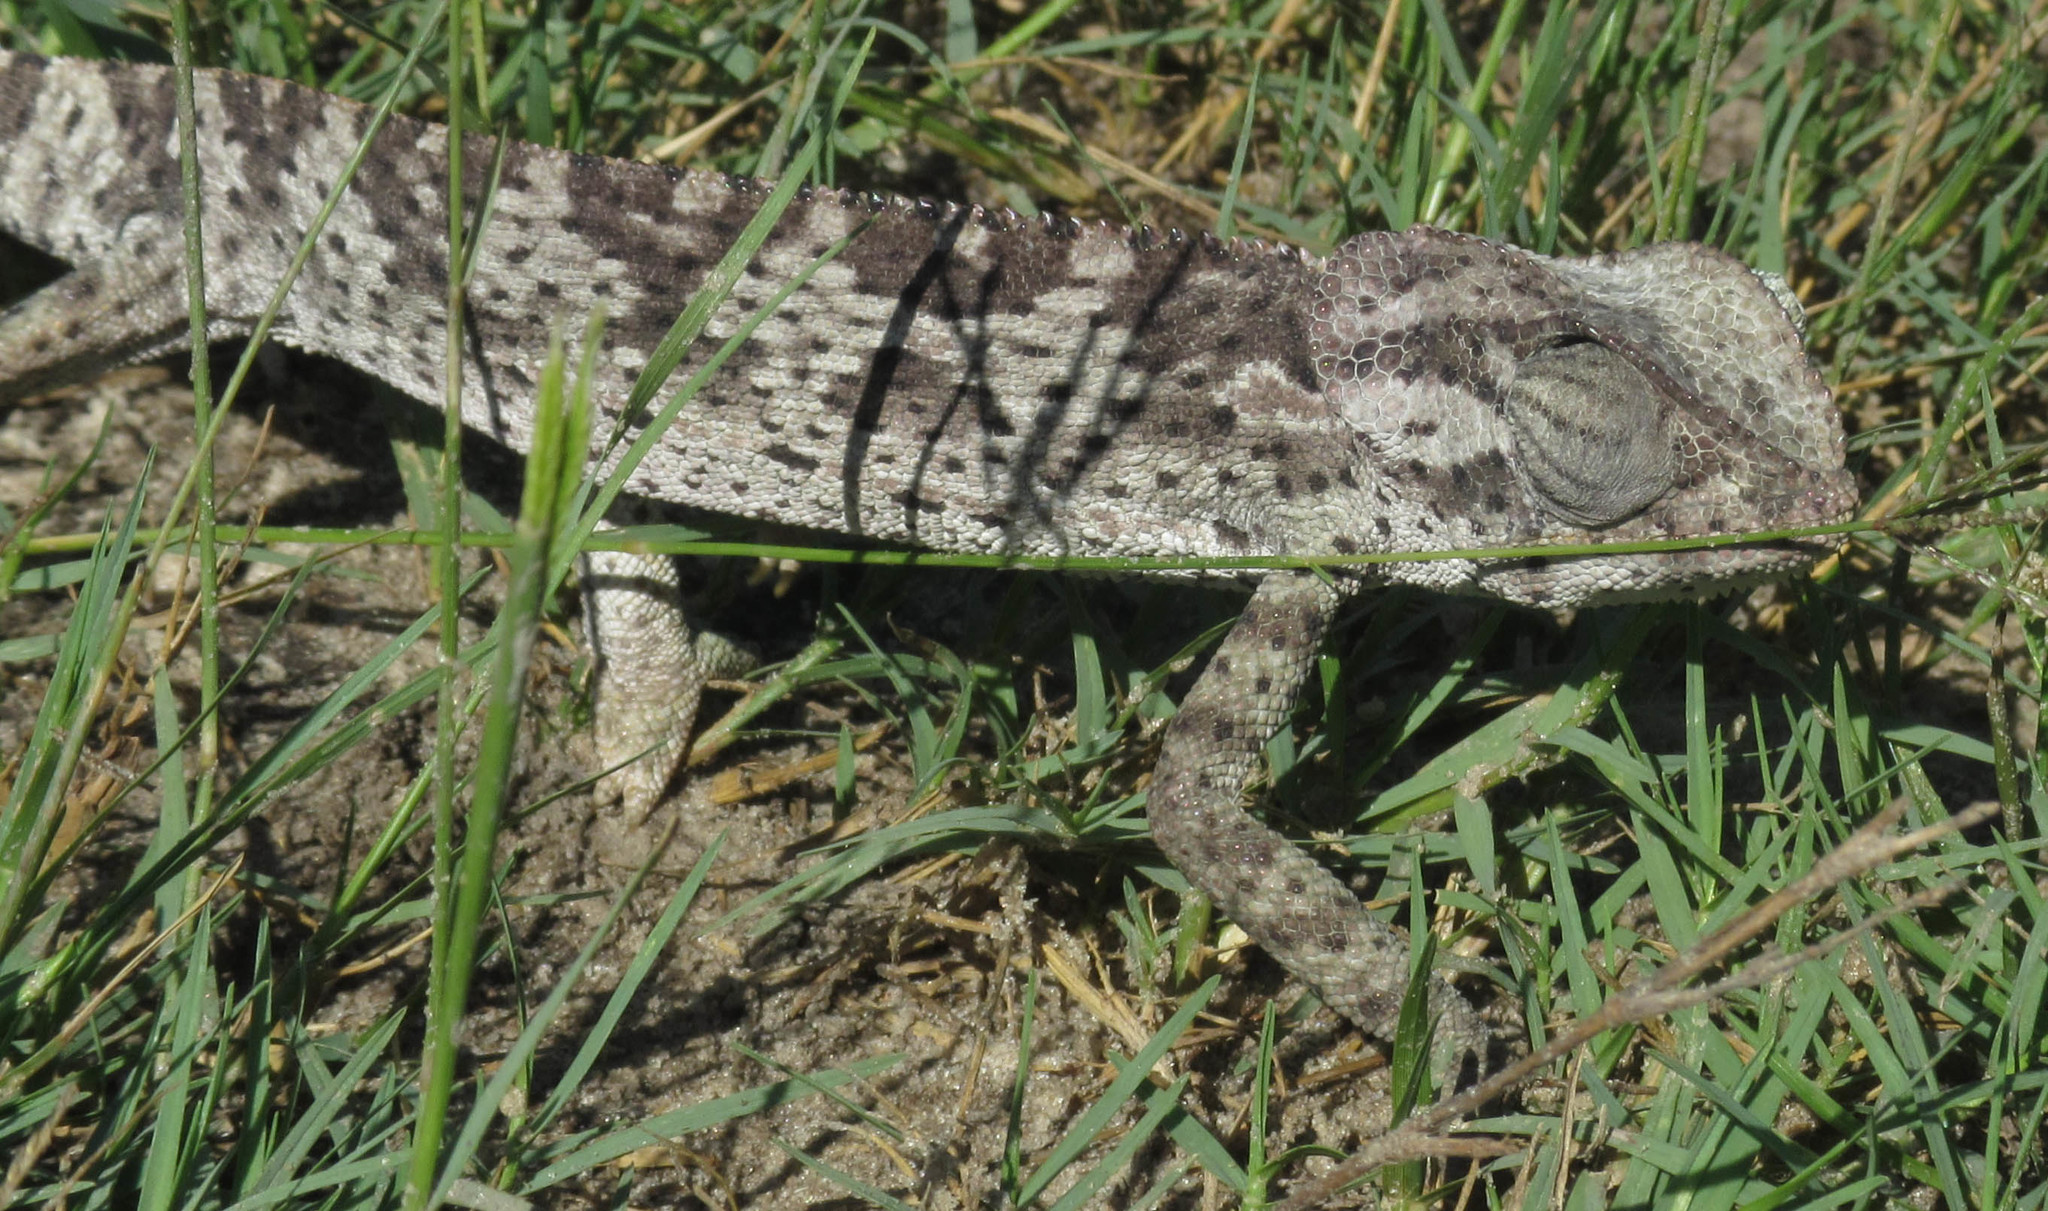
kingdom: Animalia
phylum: Chordata
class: Squamata
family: Chamaeleonidae
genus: Chamaeleo
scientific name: Chamaeleo dilepis
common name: Flapneck chameleon
